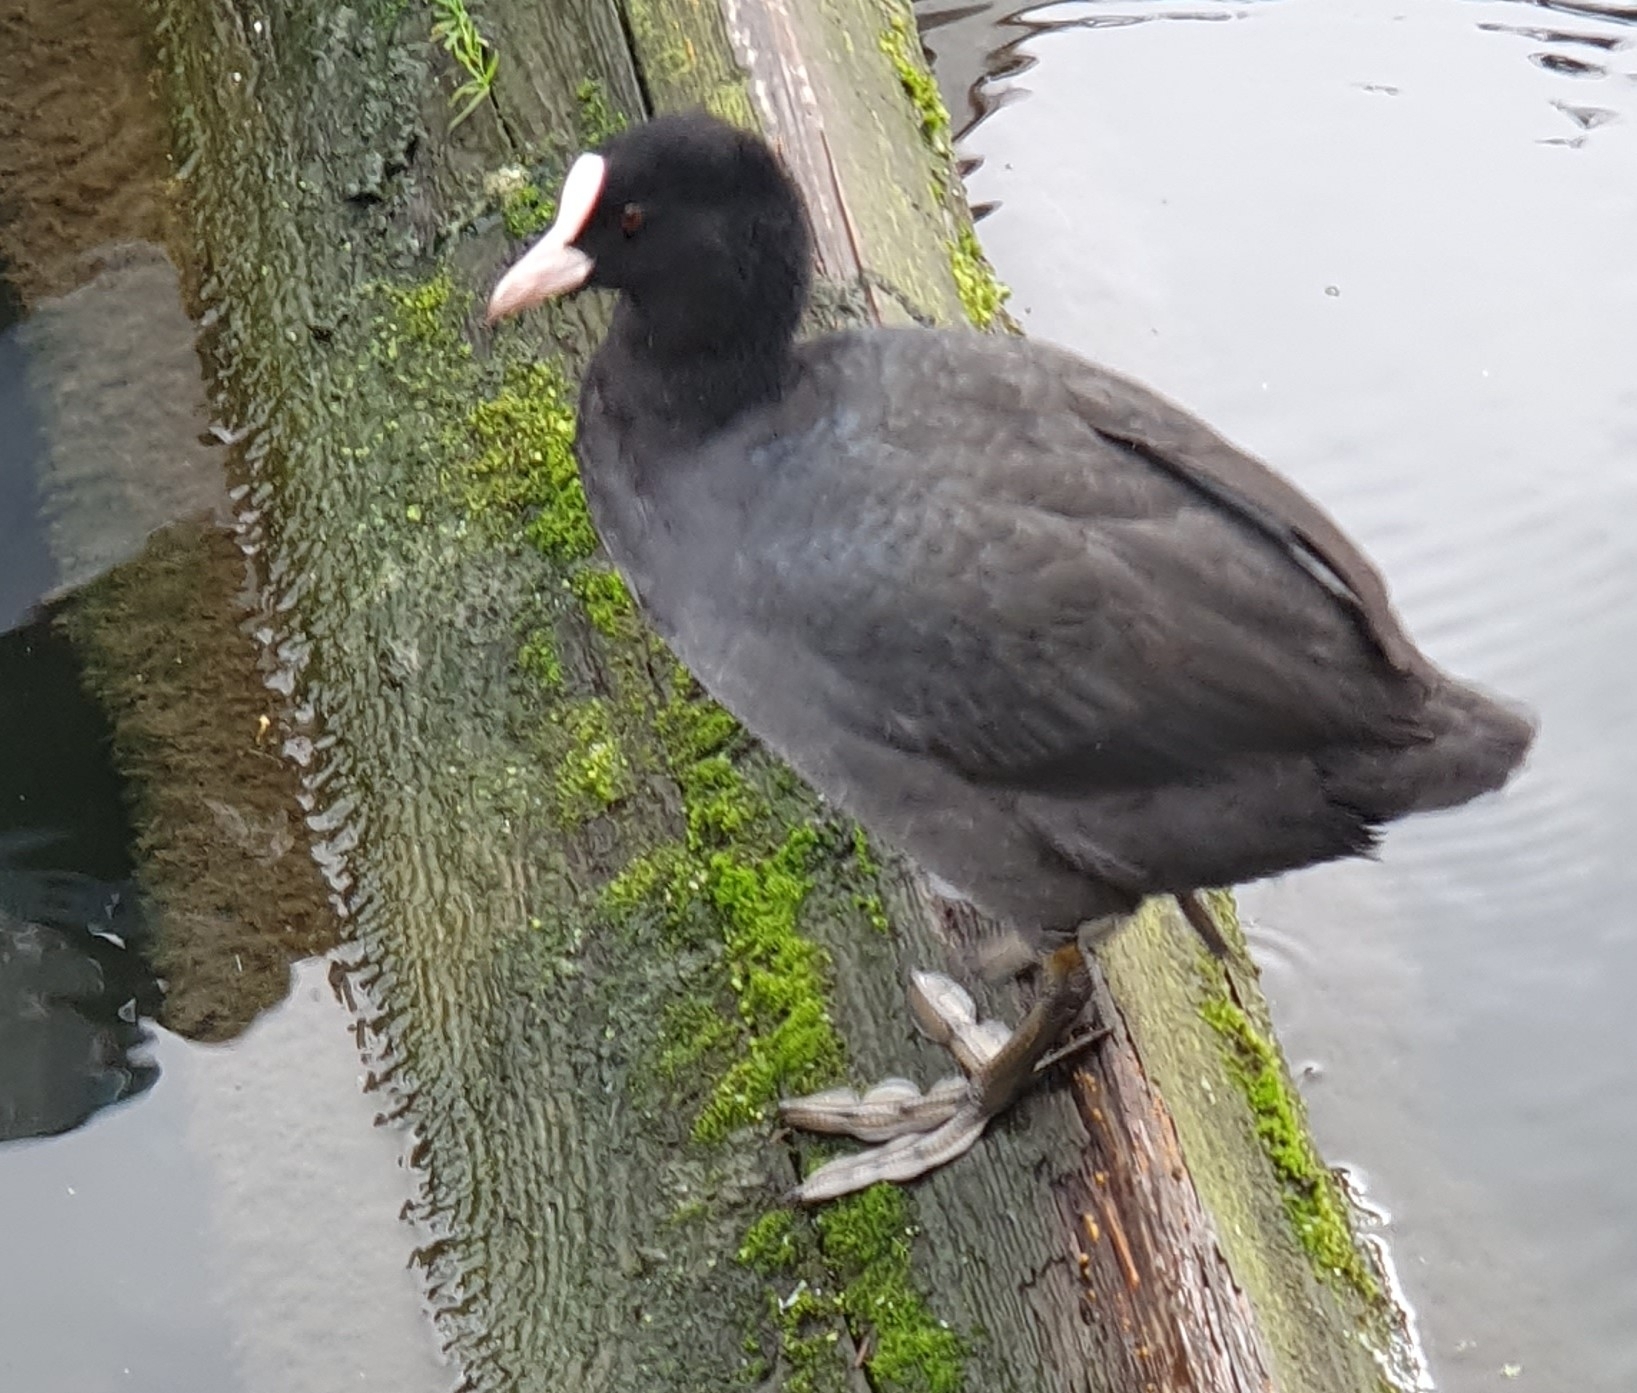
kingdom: Animalia
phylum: Chordata
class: Aves
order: Gruiformes
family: Rallidae
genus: Fulica
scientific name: Fulica atra
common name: Eurasian coot
